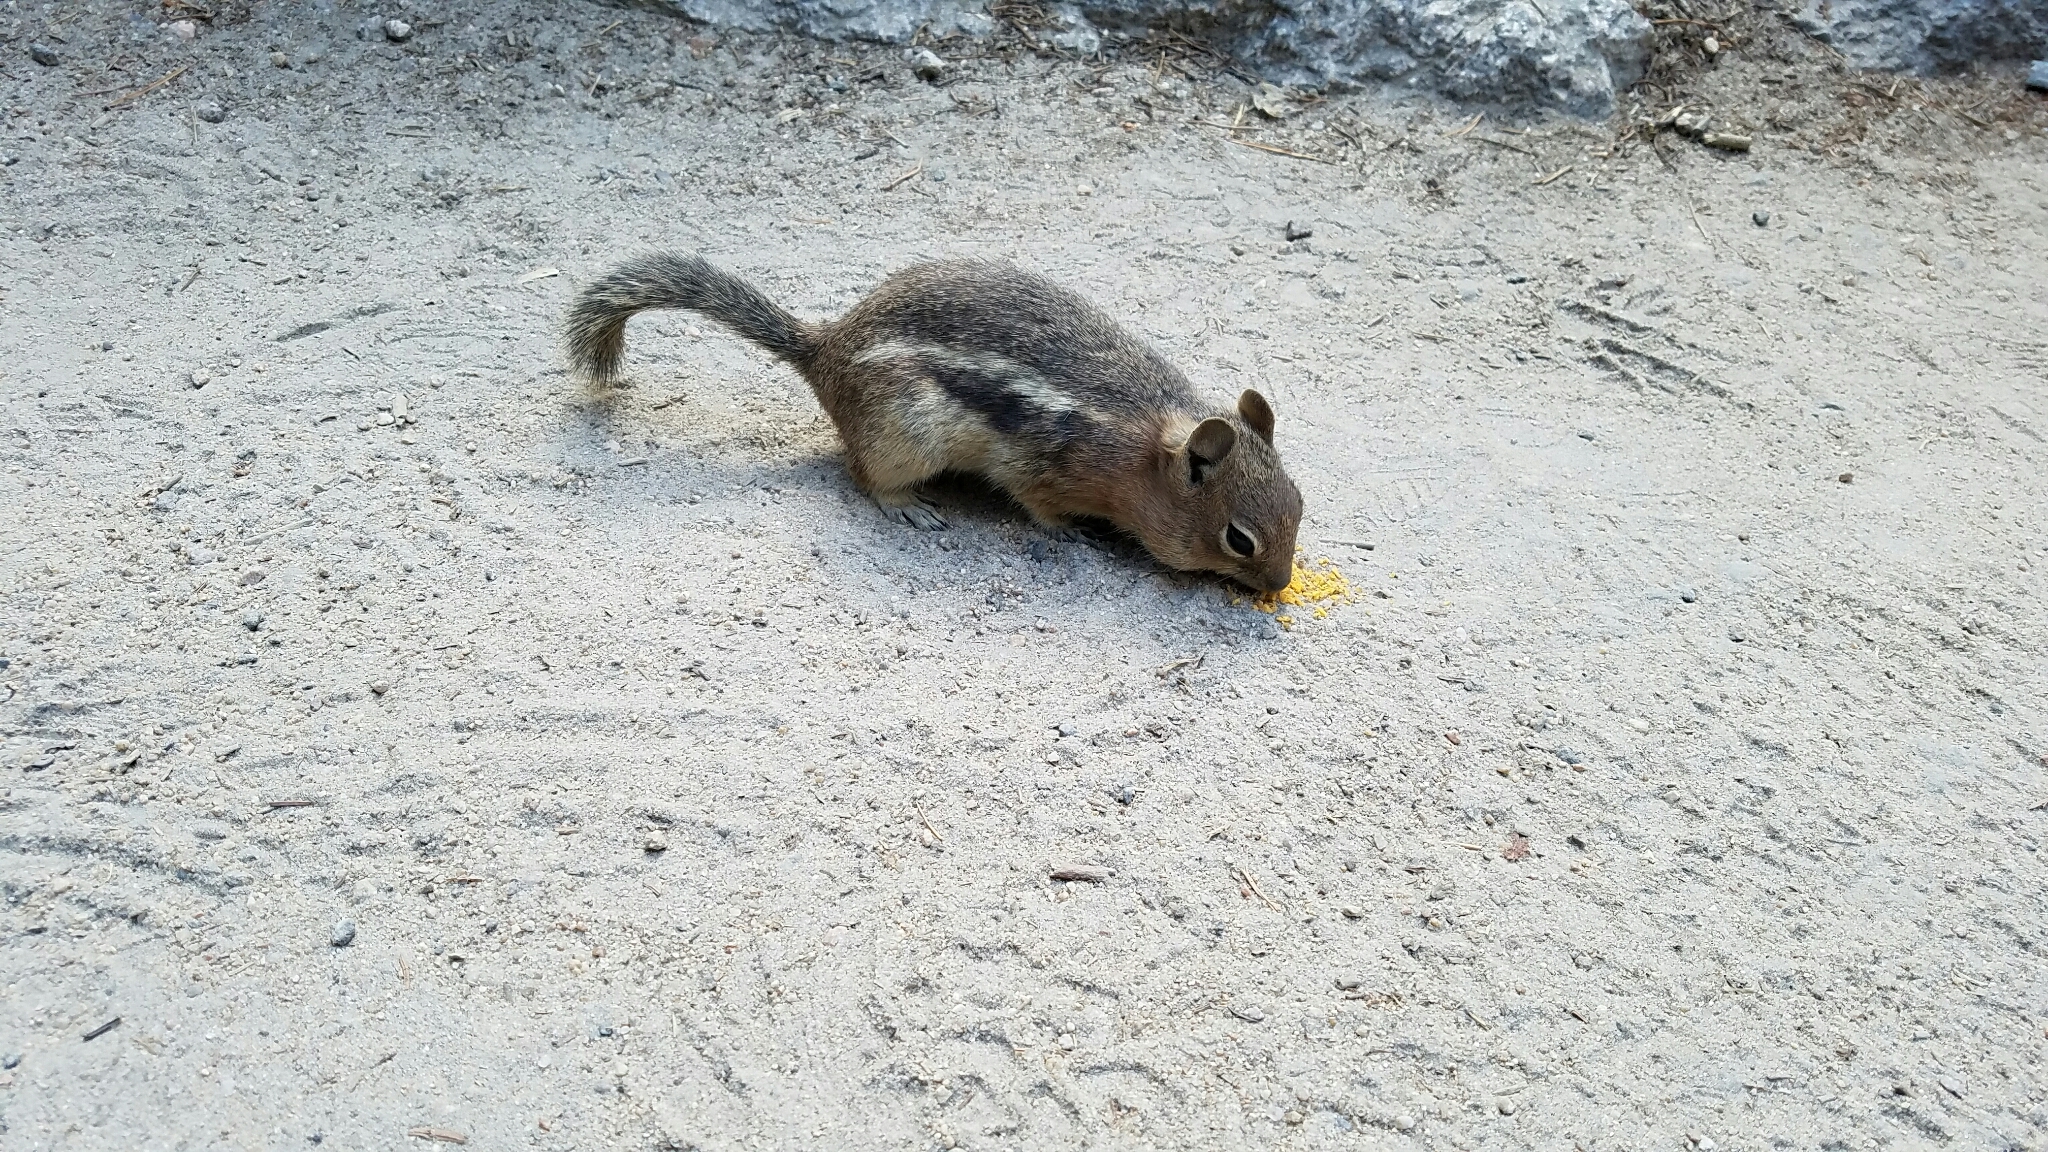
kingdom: Animalia
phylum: Chordata
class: Mammalia
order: Rodentia
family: Sciuridae
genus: Callospermophilus
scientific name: Callospermophilus lateralis
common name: Golden-mantled ground squirrel
